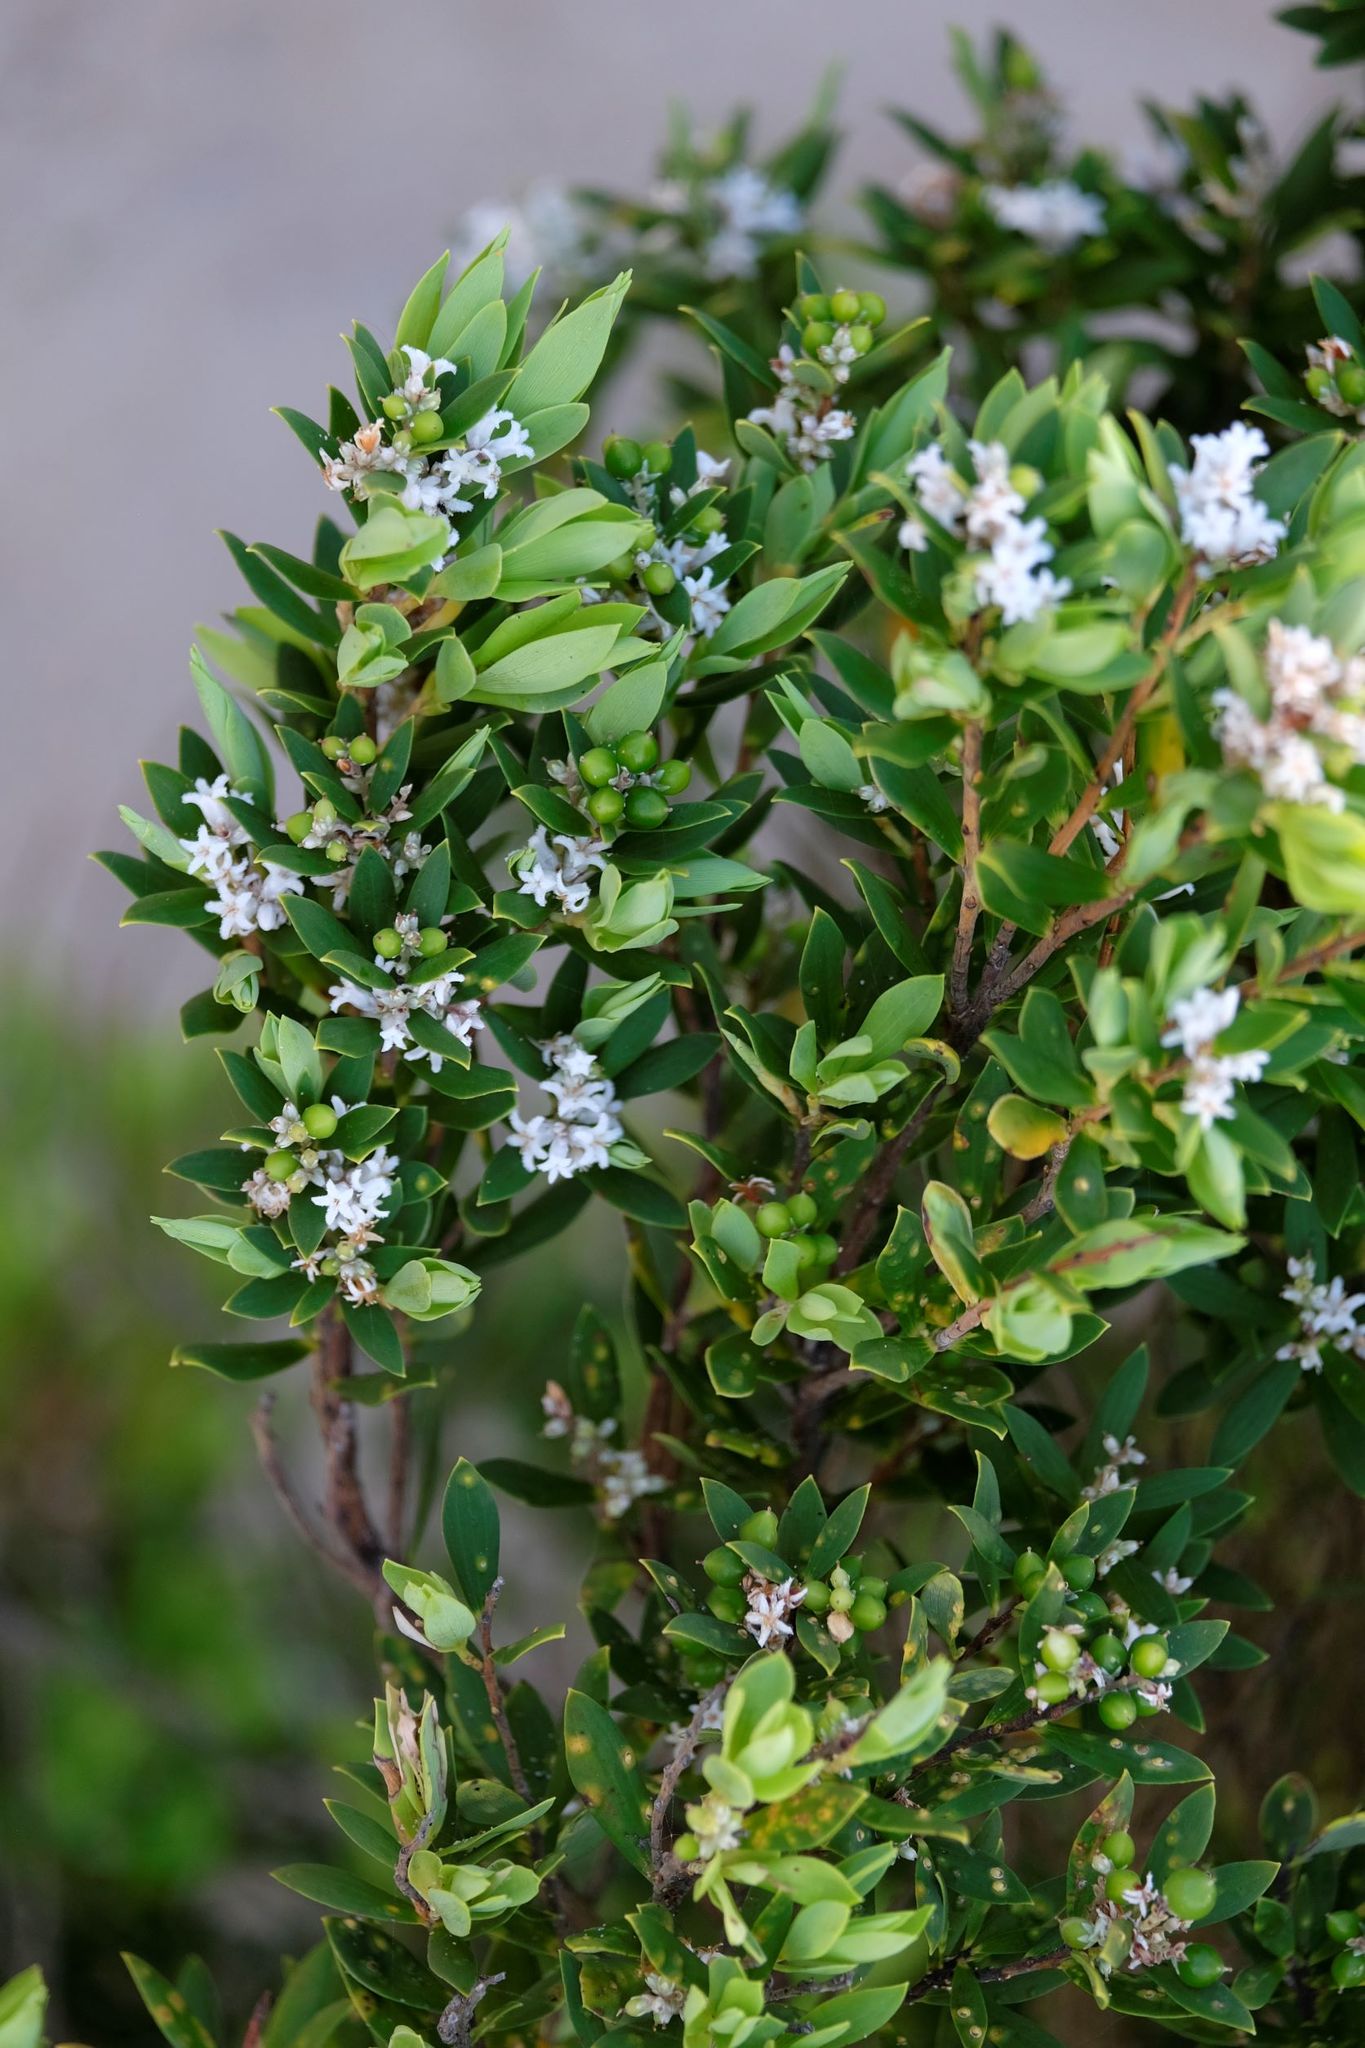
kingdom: Plantae
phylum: Tracheophyta
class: Magnoliopsida
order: Ericales
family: Ericaceae
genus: Leptecophylla
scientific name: Leptecophylla parvifolia
